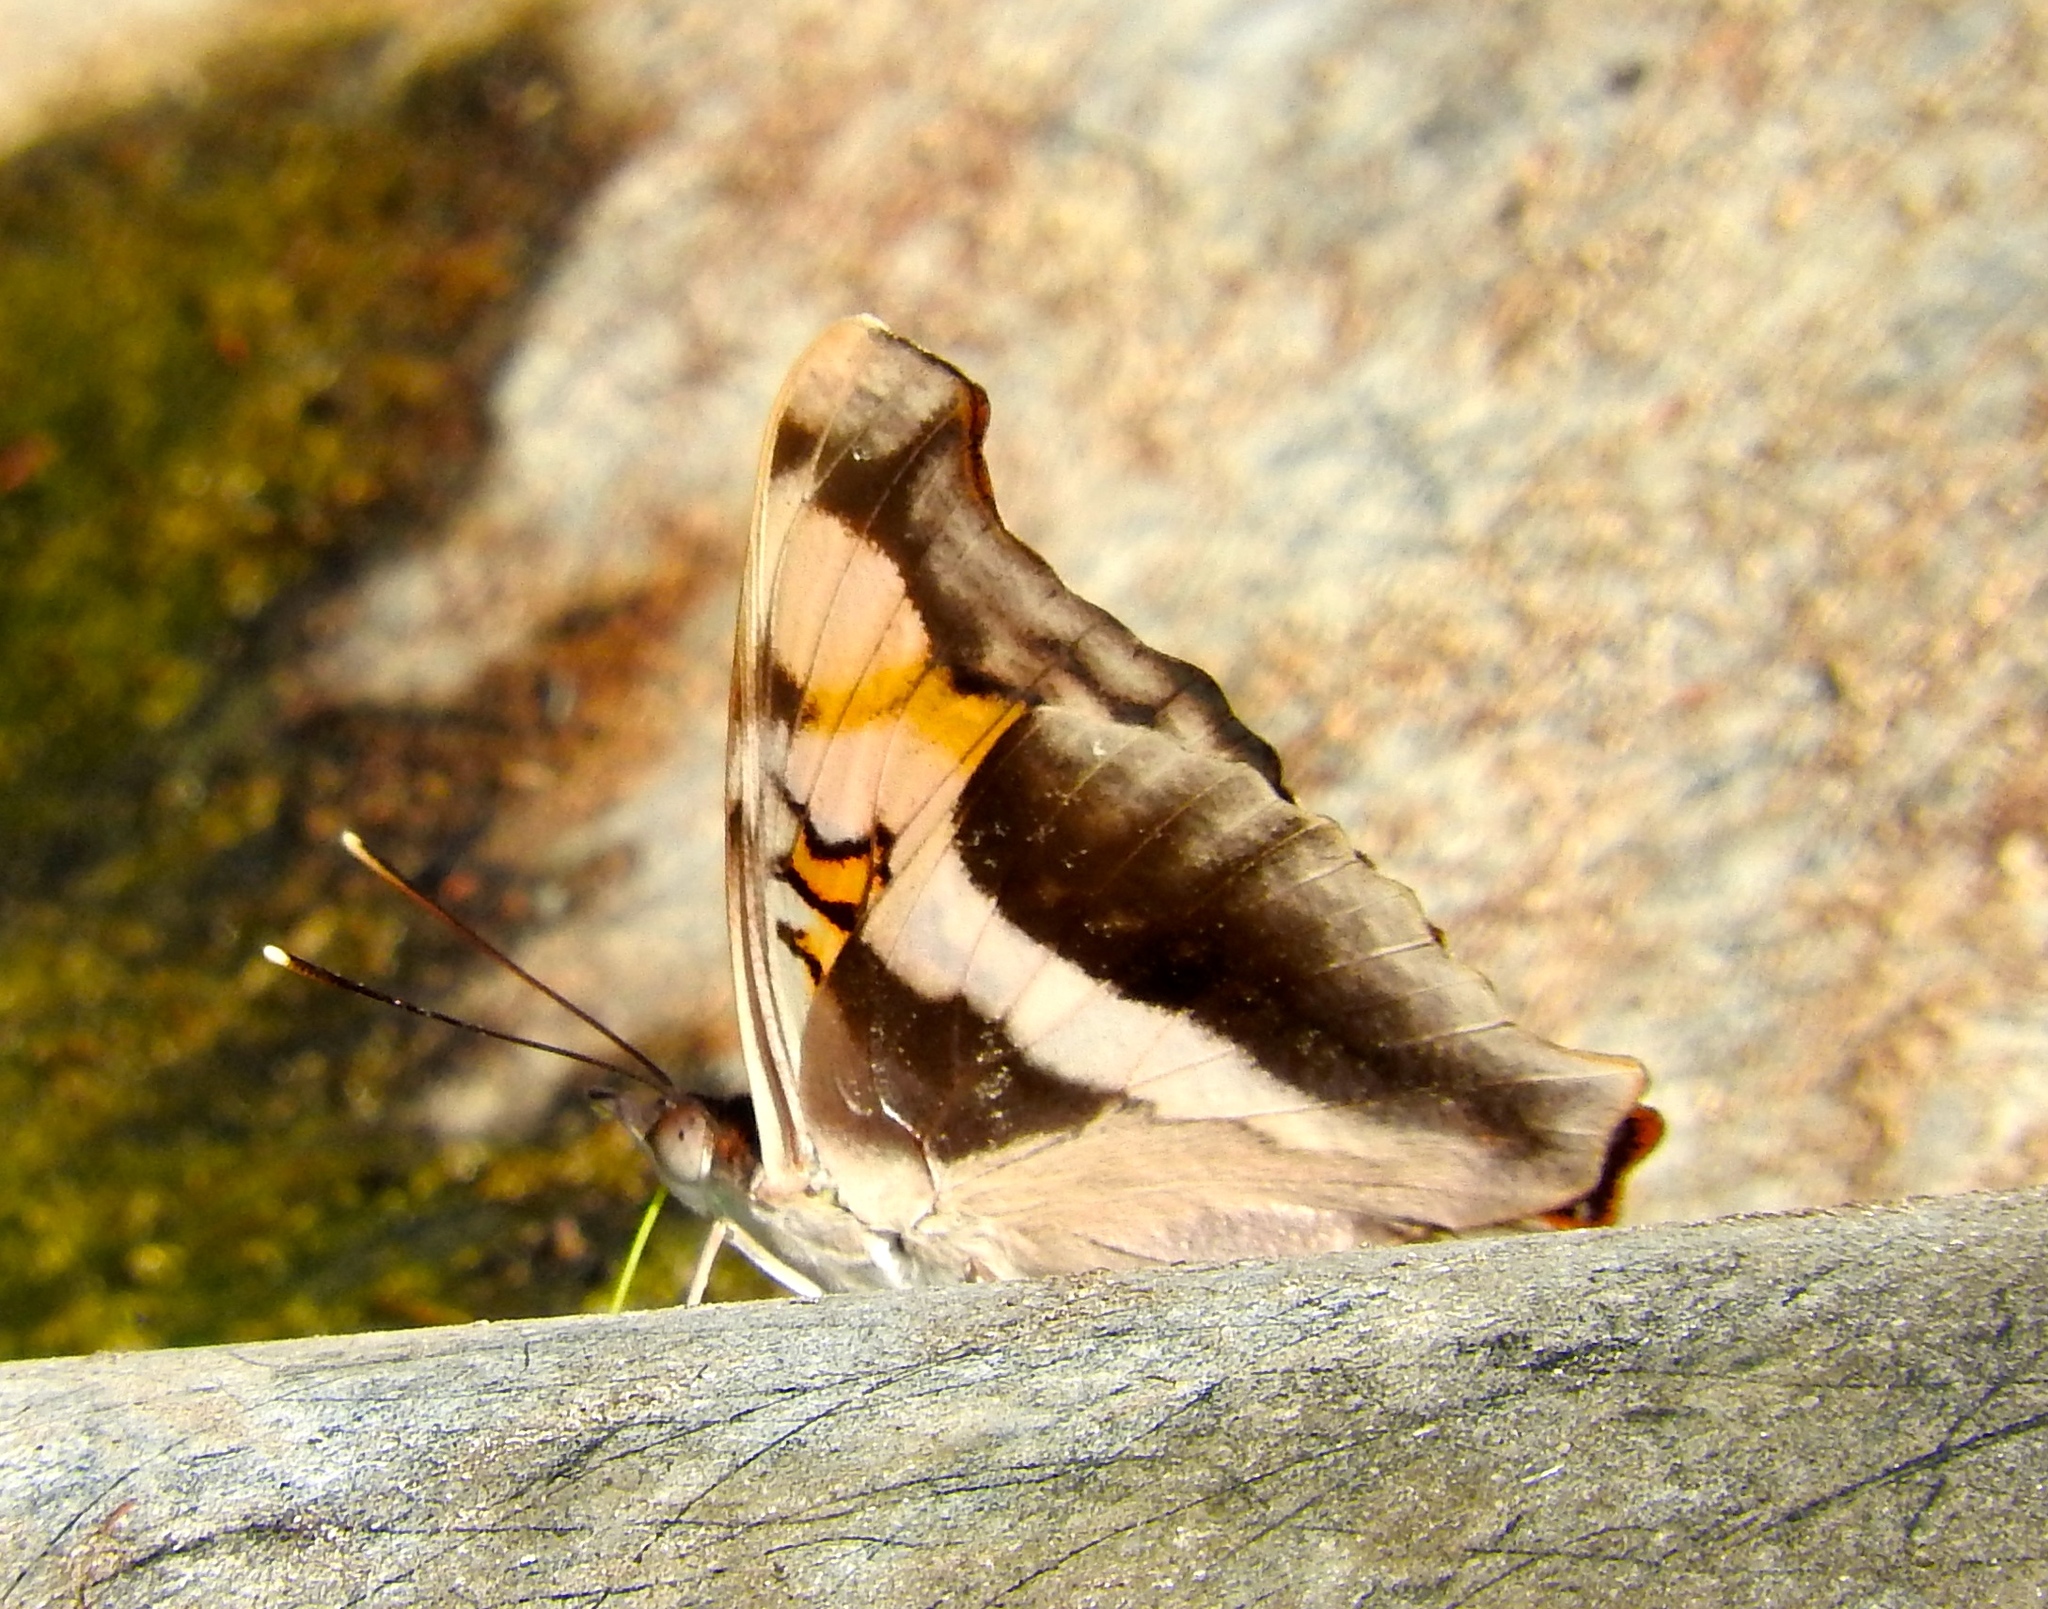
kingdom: Animalia
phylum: Arthropoda
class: Insecta
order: Lepidoptera
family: Nymphalidae
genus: Doxocopa
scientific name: Doxocopa laure
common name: Silver emperor
